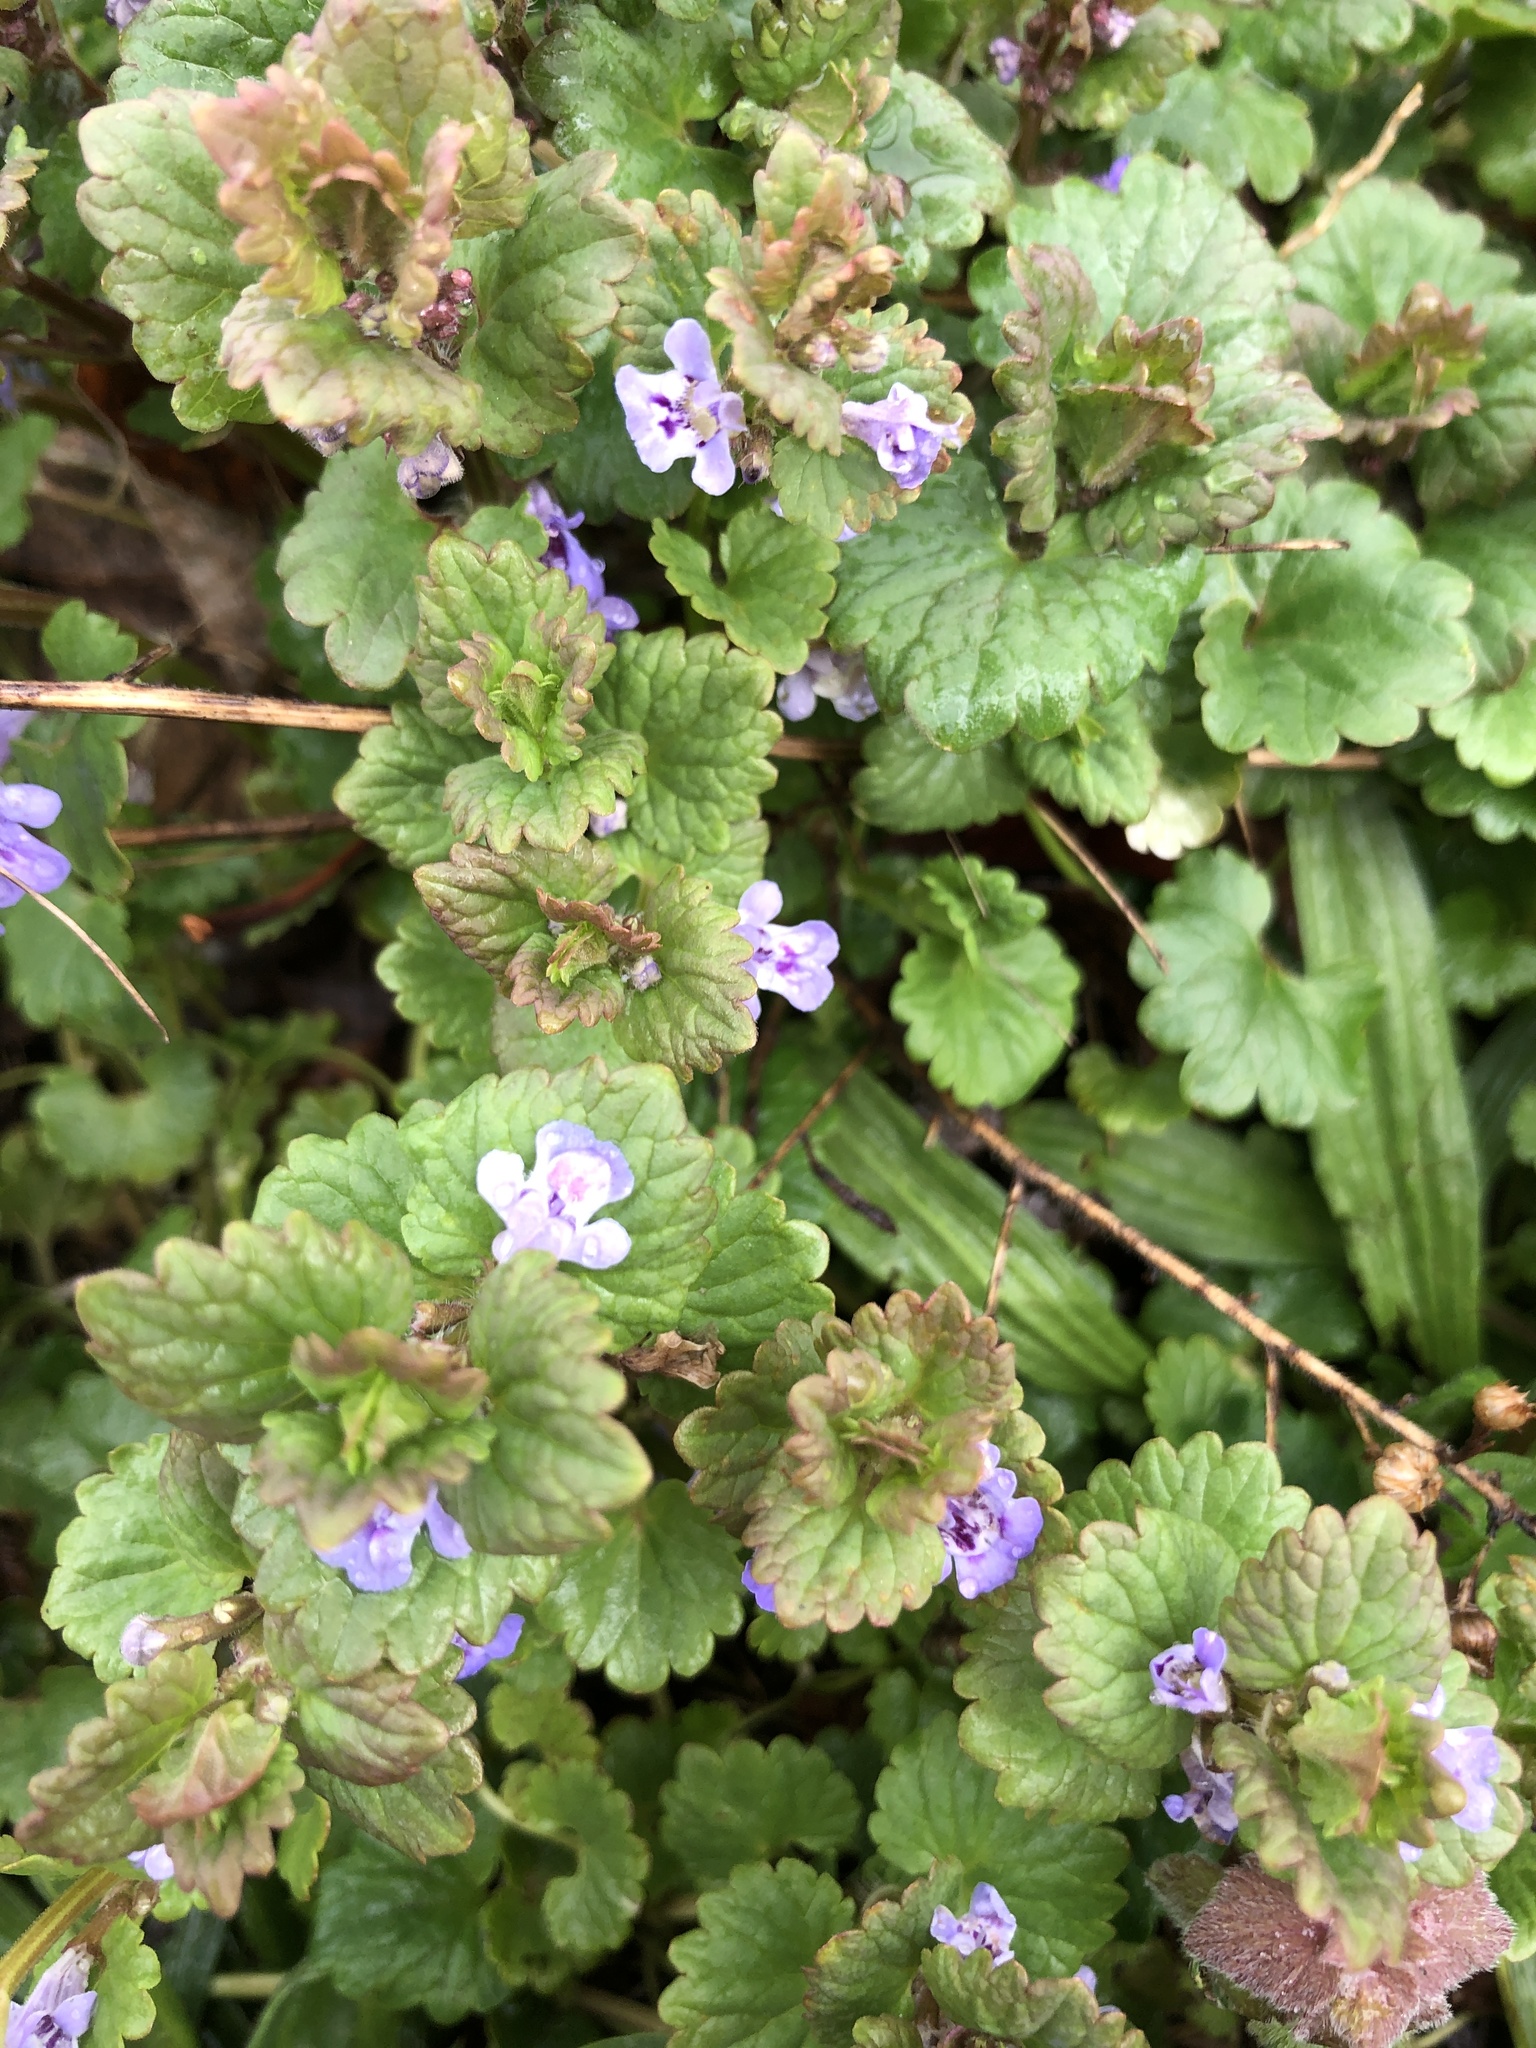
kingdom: Plantae
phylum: Tracheophyta
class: Magnoliopsida
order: Lamiales
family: Lamiaceae
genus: Glechoma
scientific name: Glechoma hederacea
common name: Ground ivy
